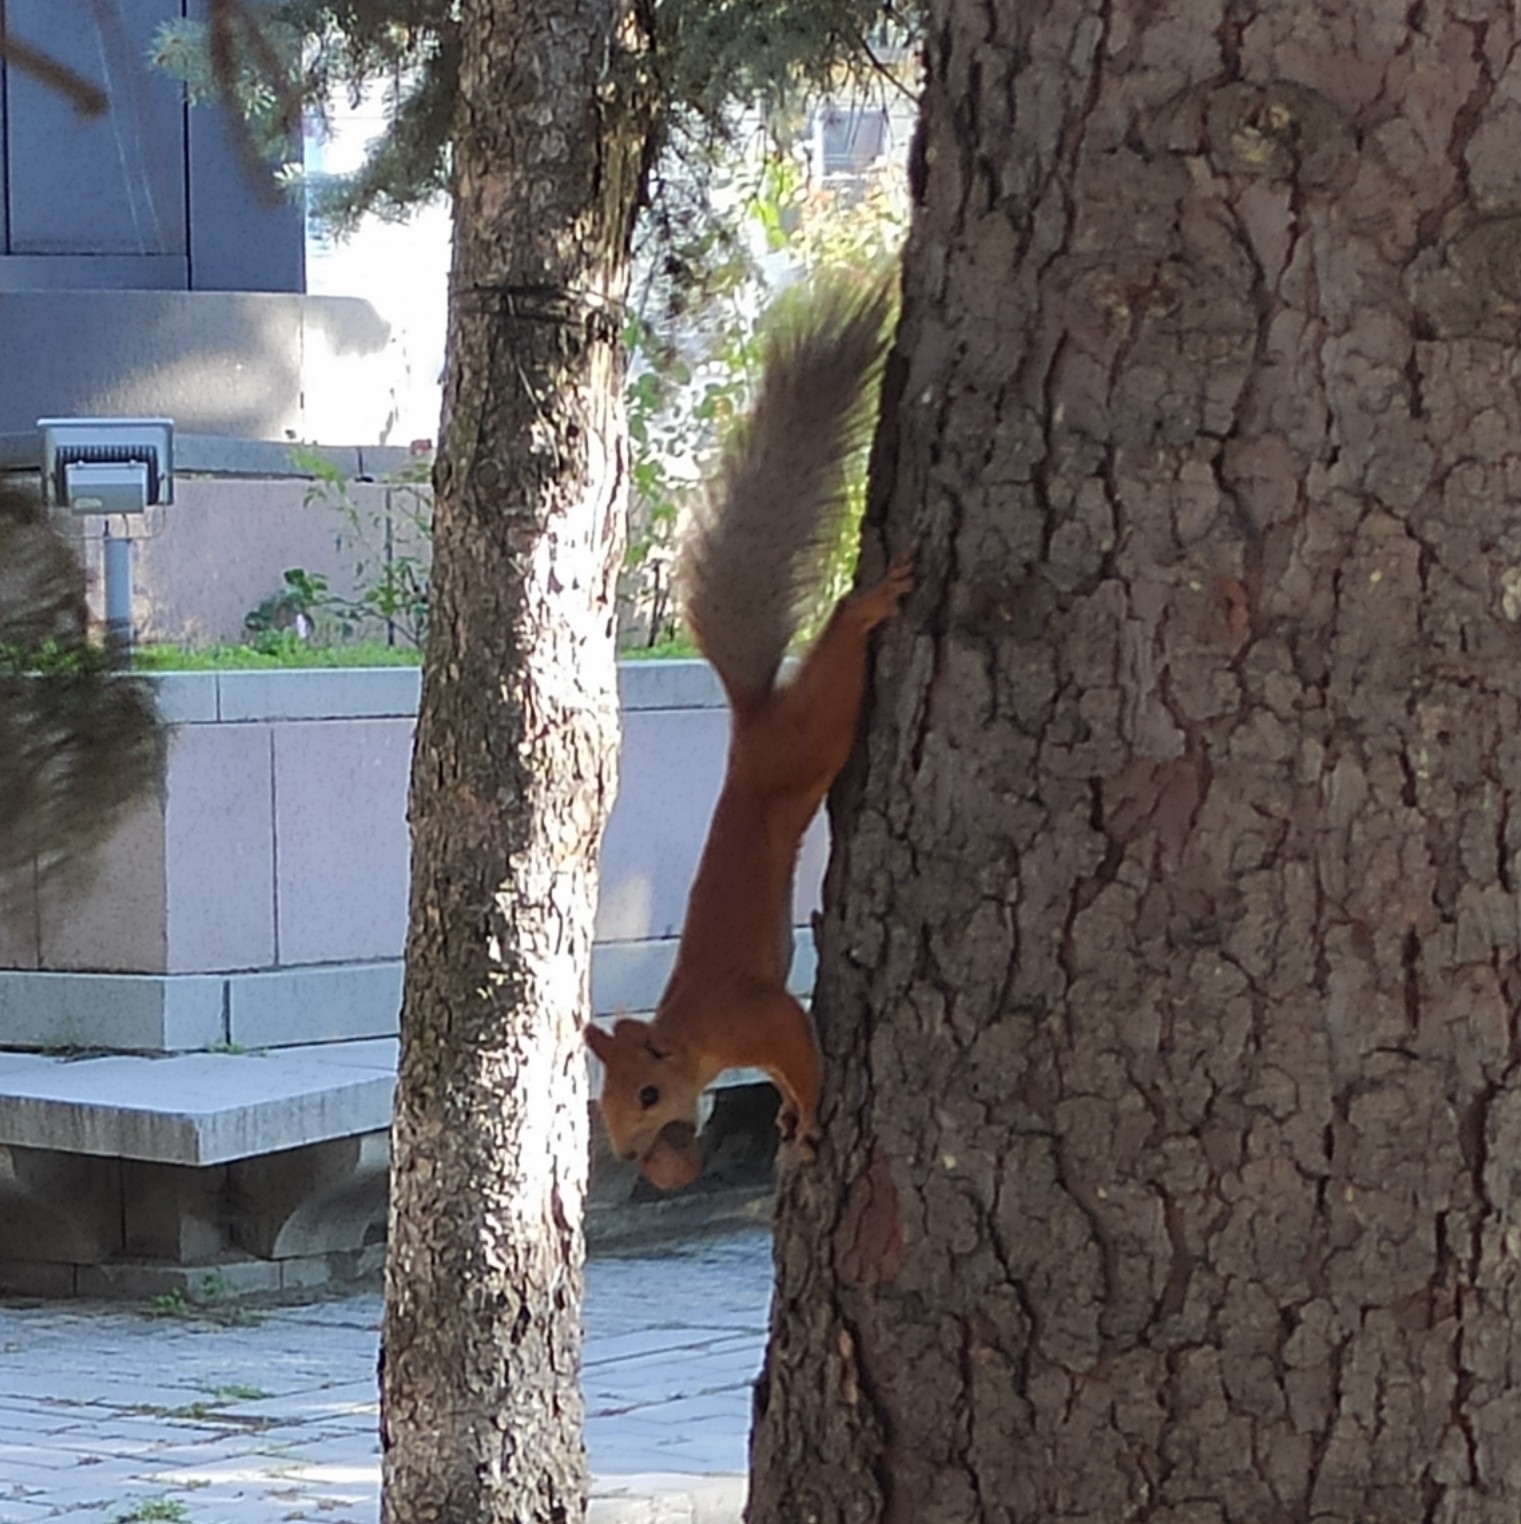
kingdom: Animalia
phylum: Chordata
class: Mammalia
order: Rodentia
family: Sciuridae
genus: Sciurus
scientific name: Sciurus vulgaris
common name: Eurasian red squirrel
